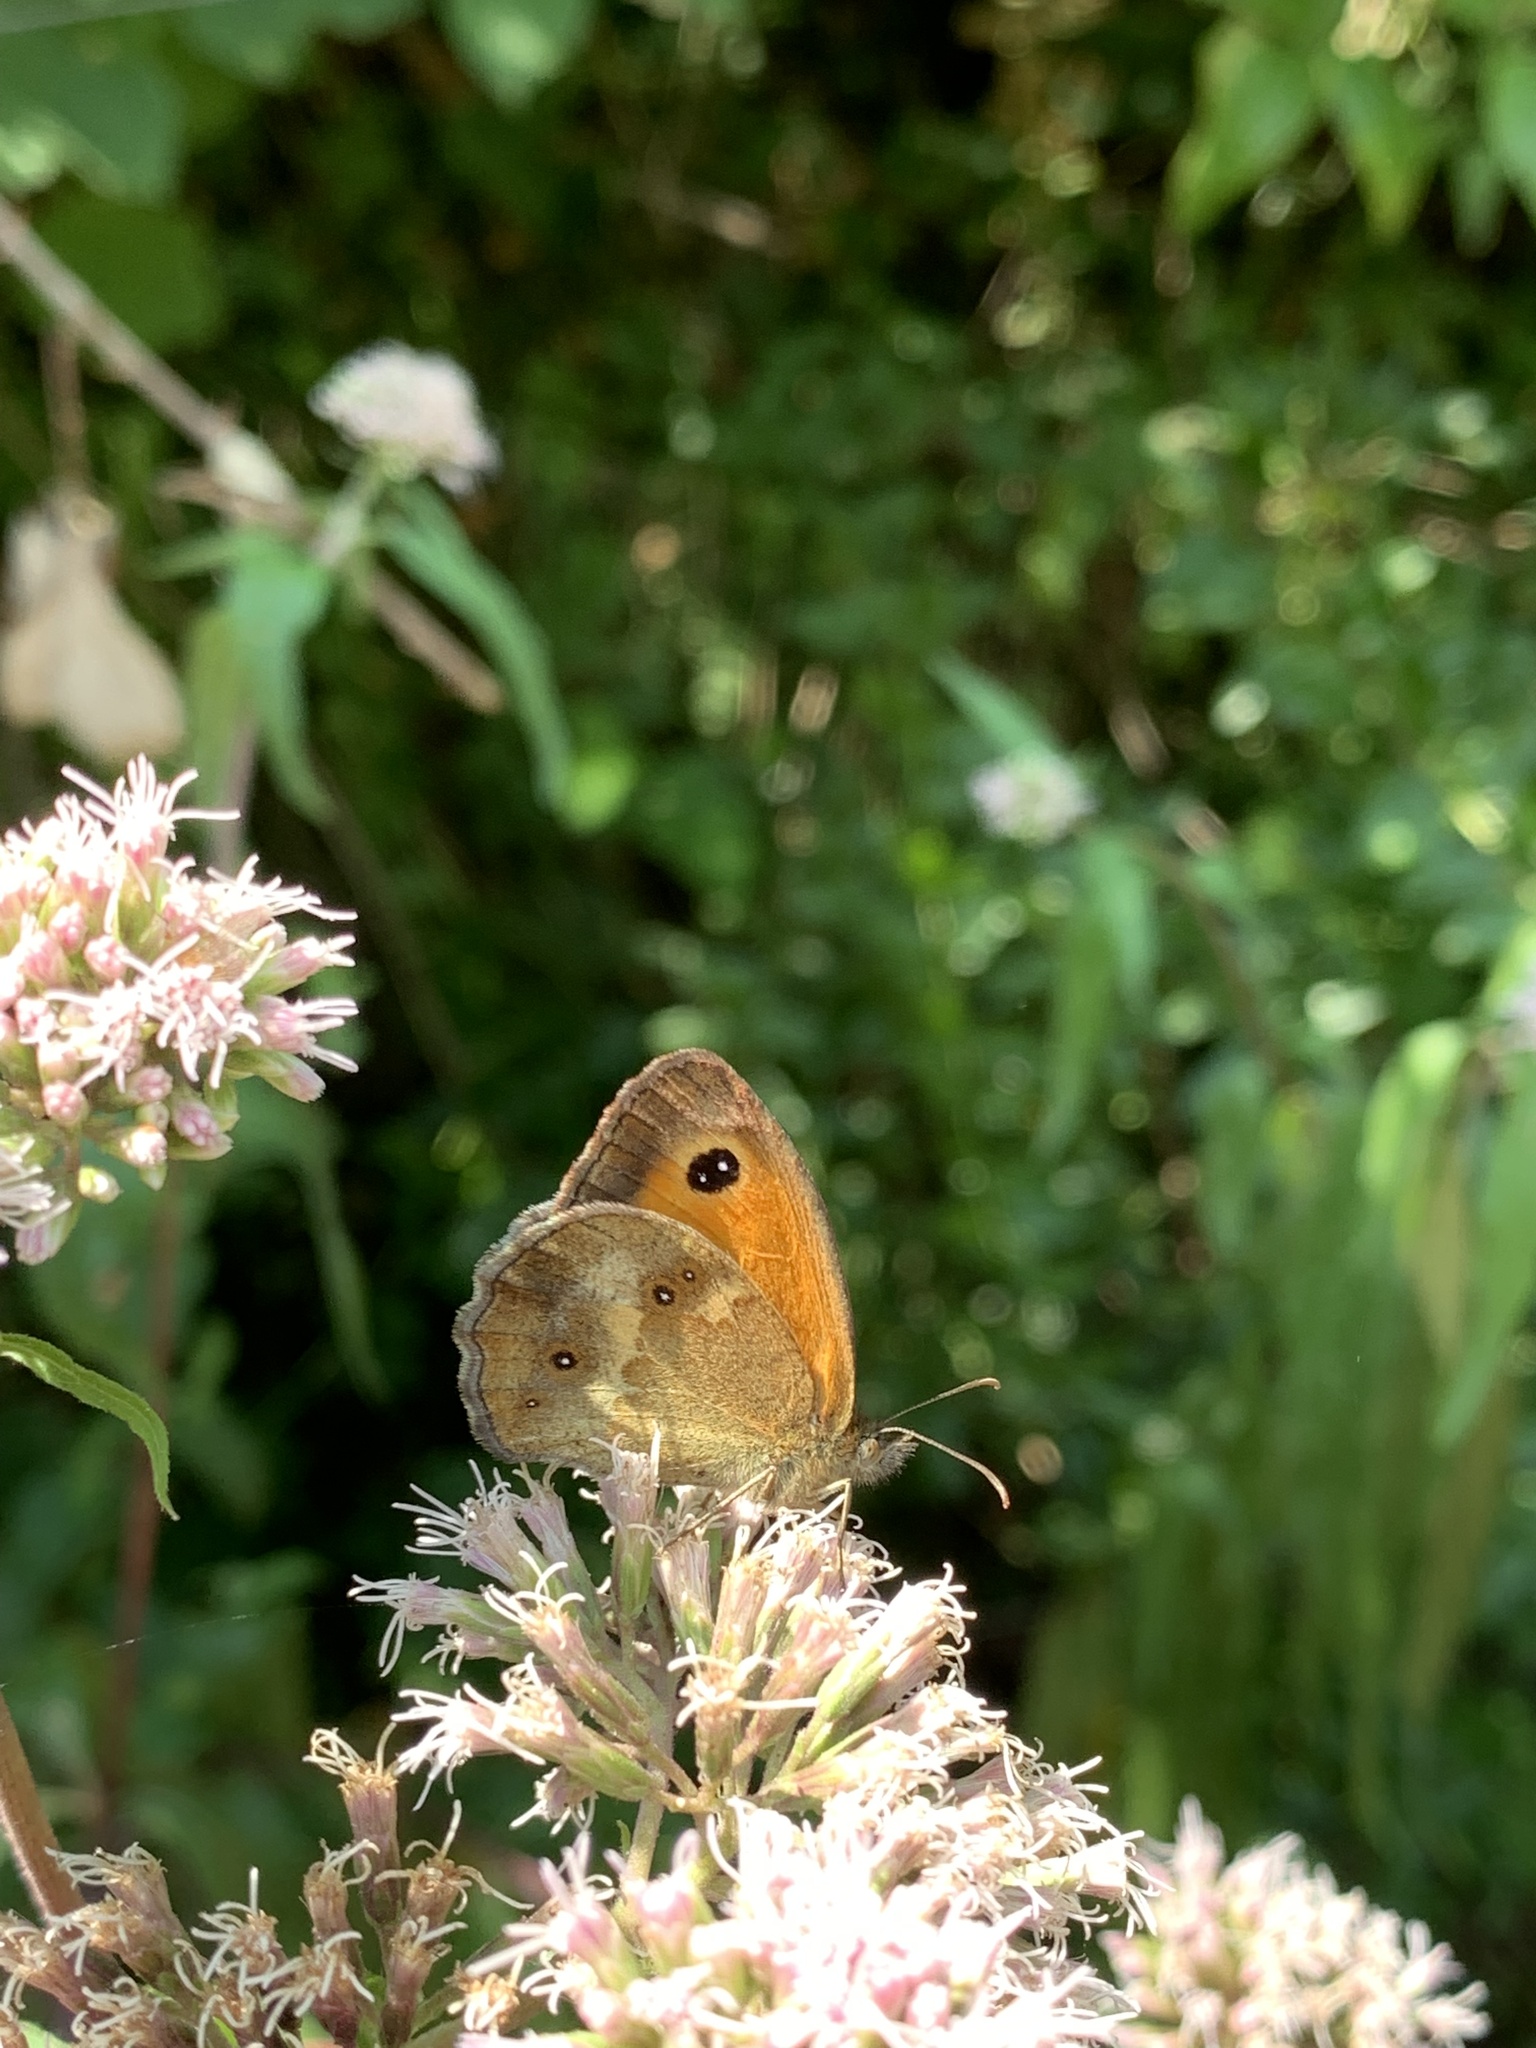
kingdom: Animalia
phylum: Arthropoda
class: Insecta
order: Lepidoptera
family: Nymphalidae
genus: Pyronia
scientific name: Pyronia tithonus
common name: Gatekeeper
